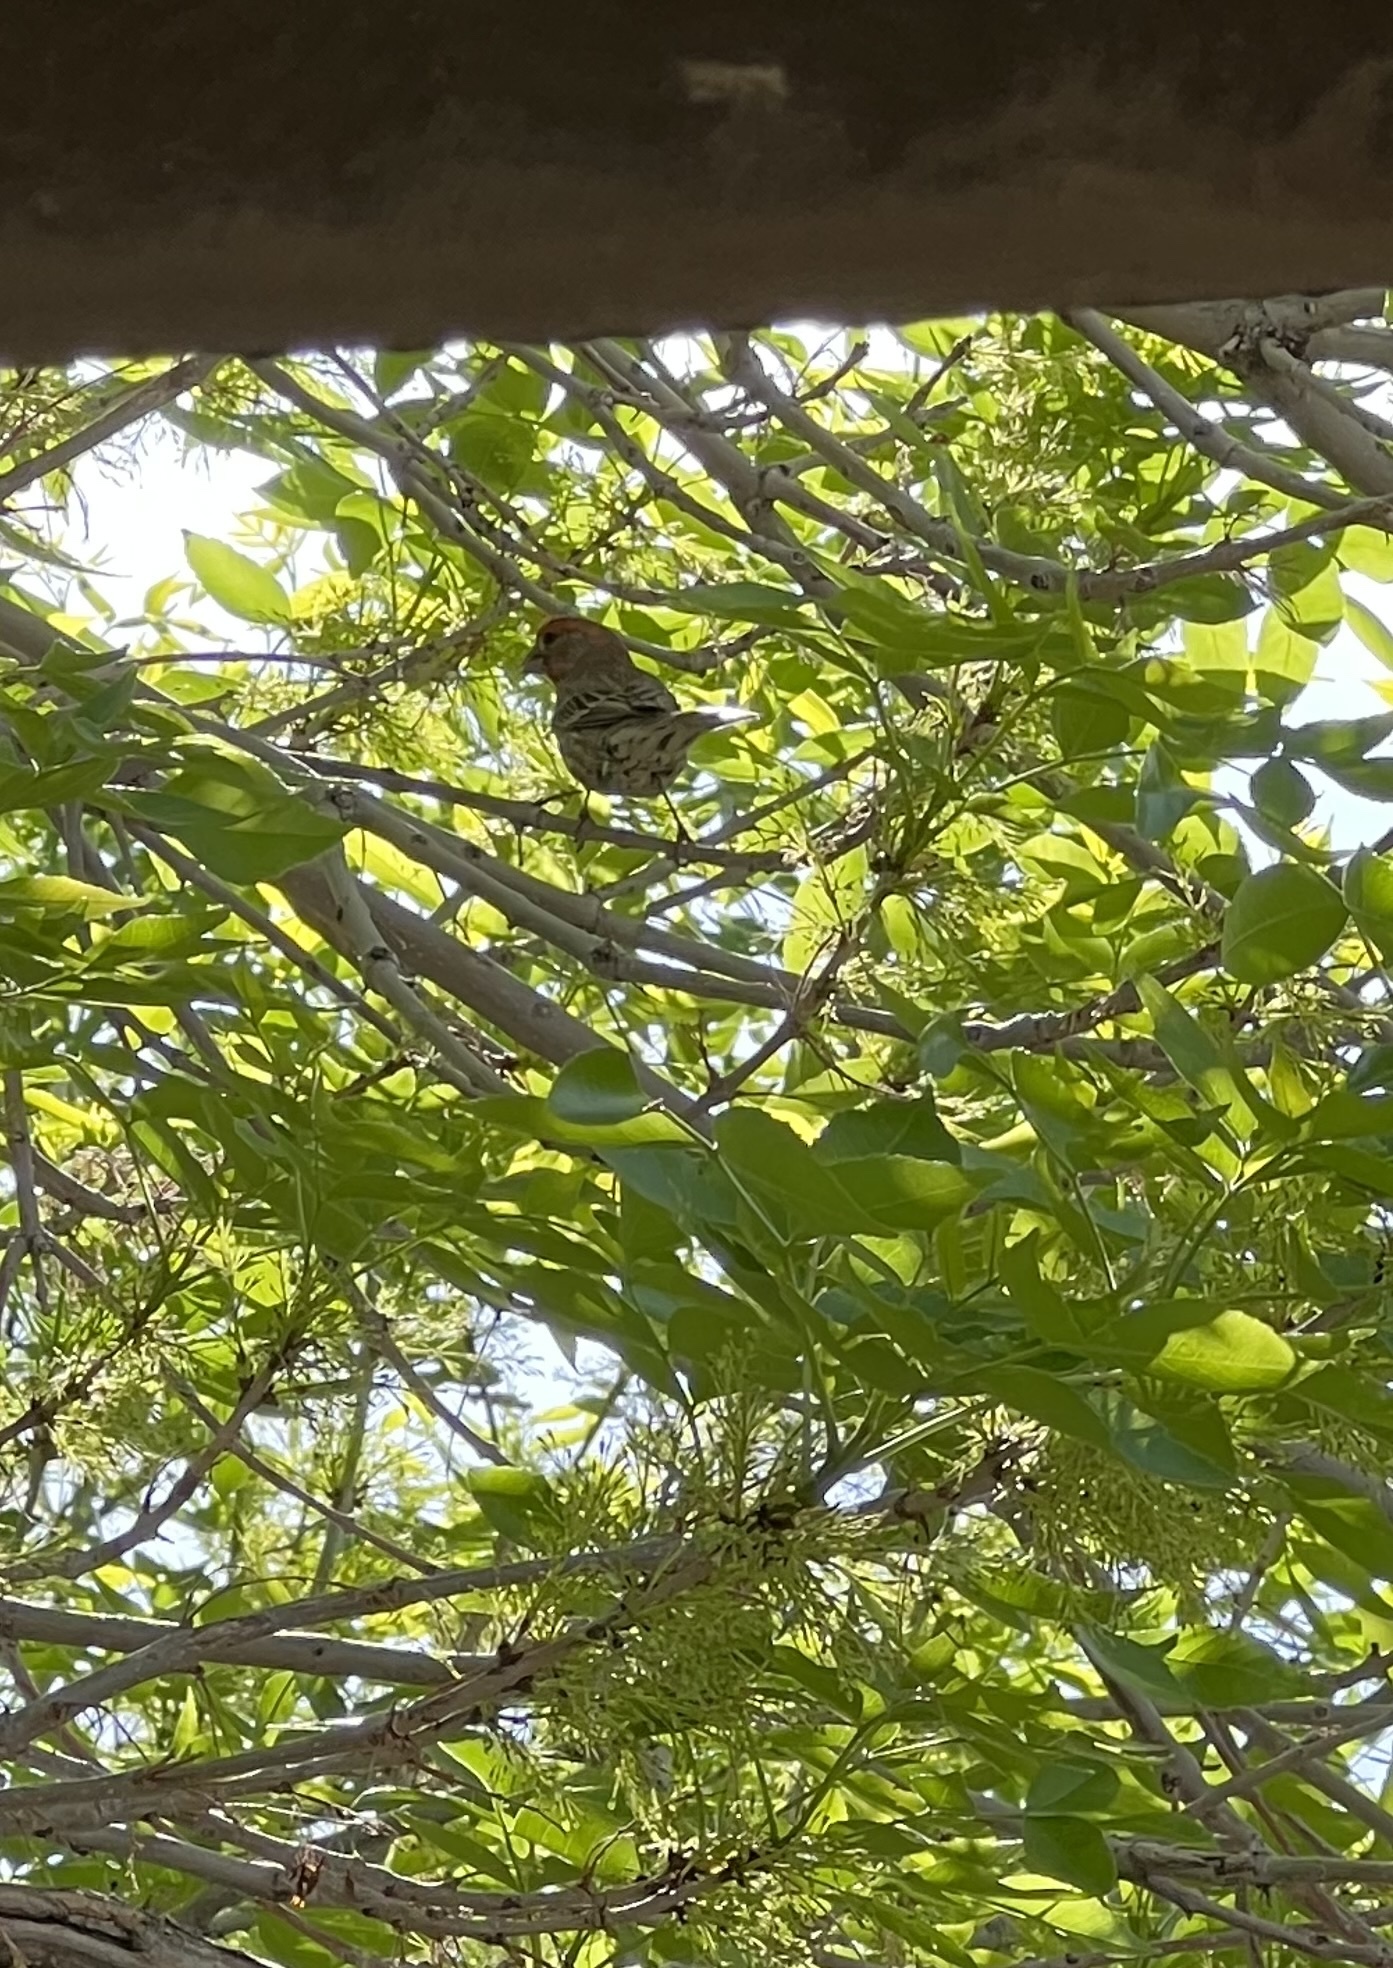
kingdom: Animalia
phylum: Chordata
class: Aves
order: Passeriformes
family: Fringillidae
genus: Haemorhous
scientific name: Haemorhous mexicanus
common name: House finch
